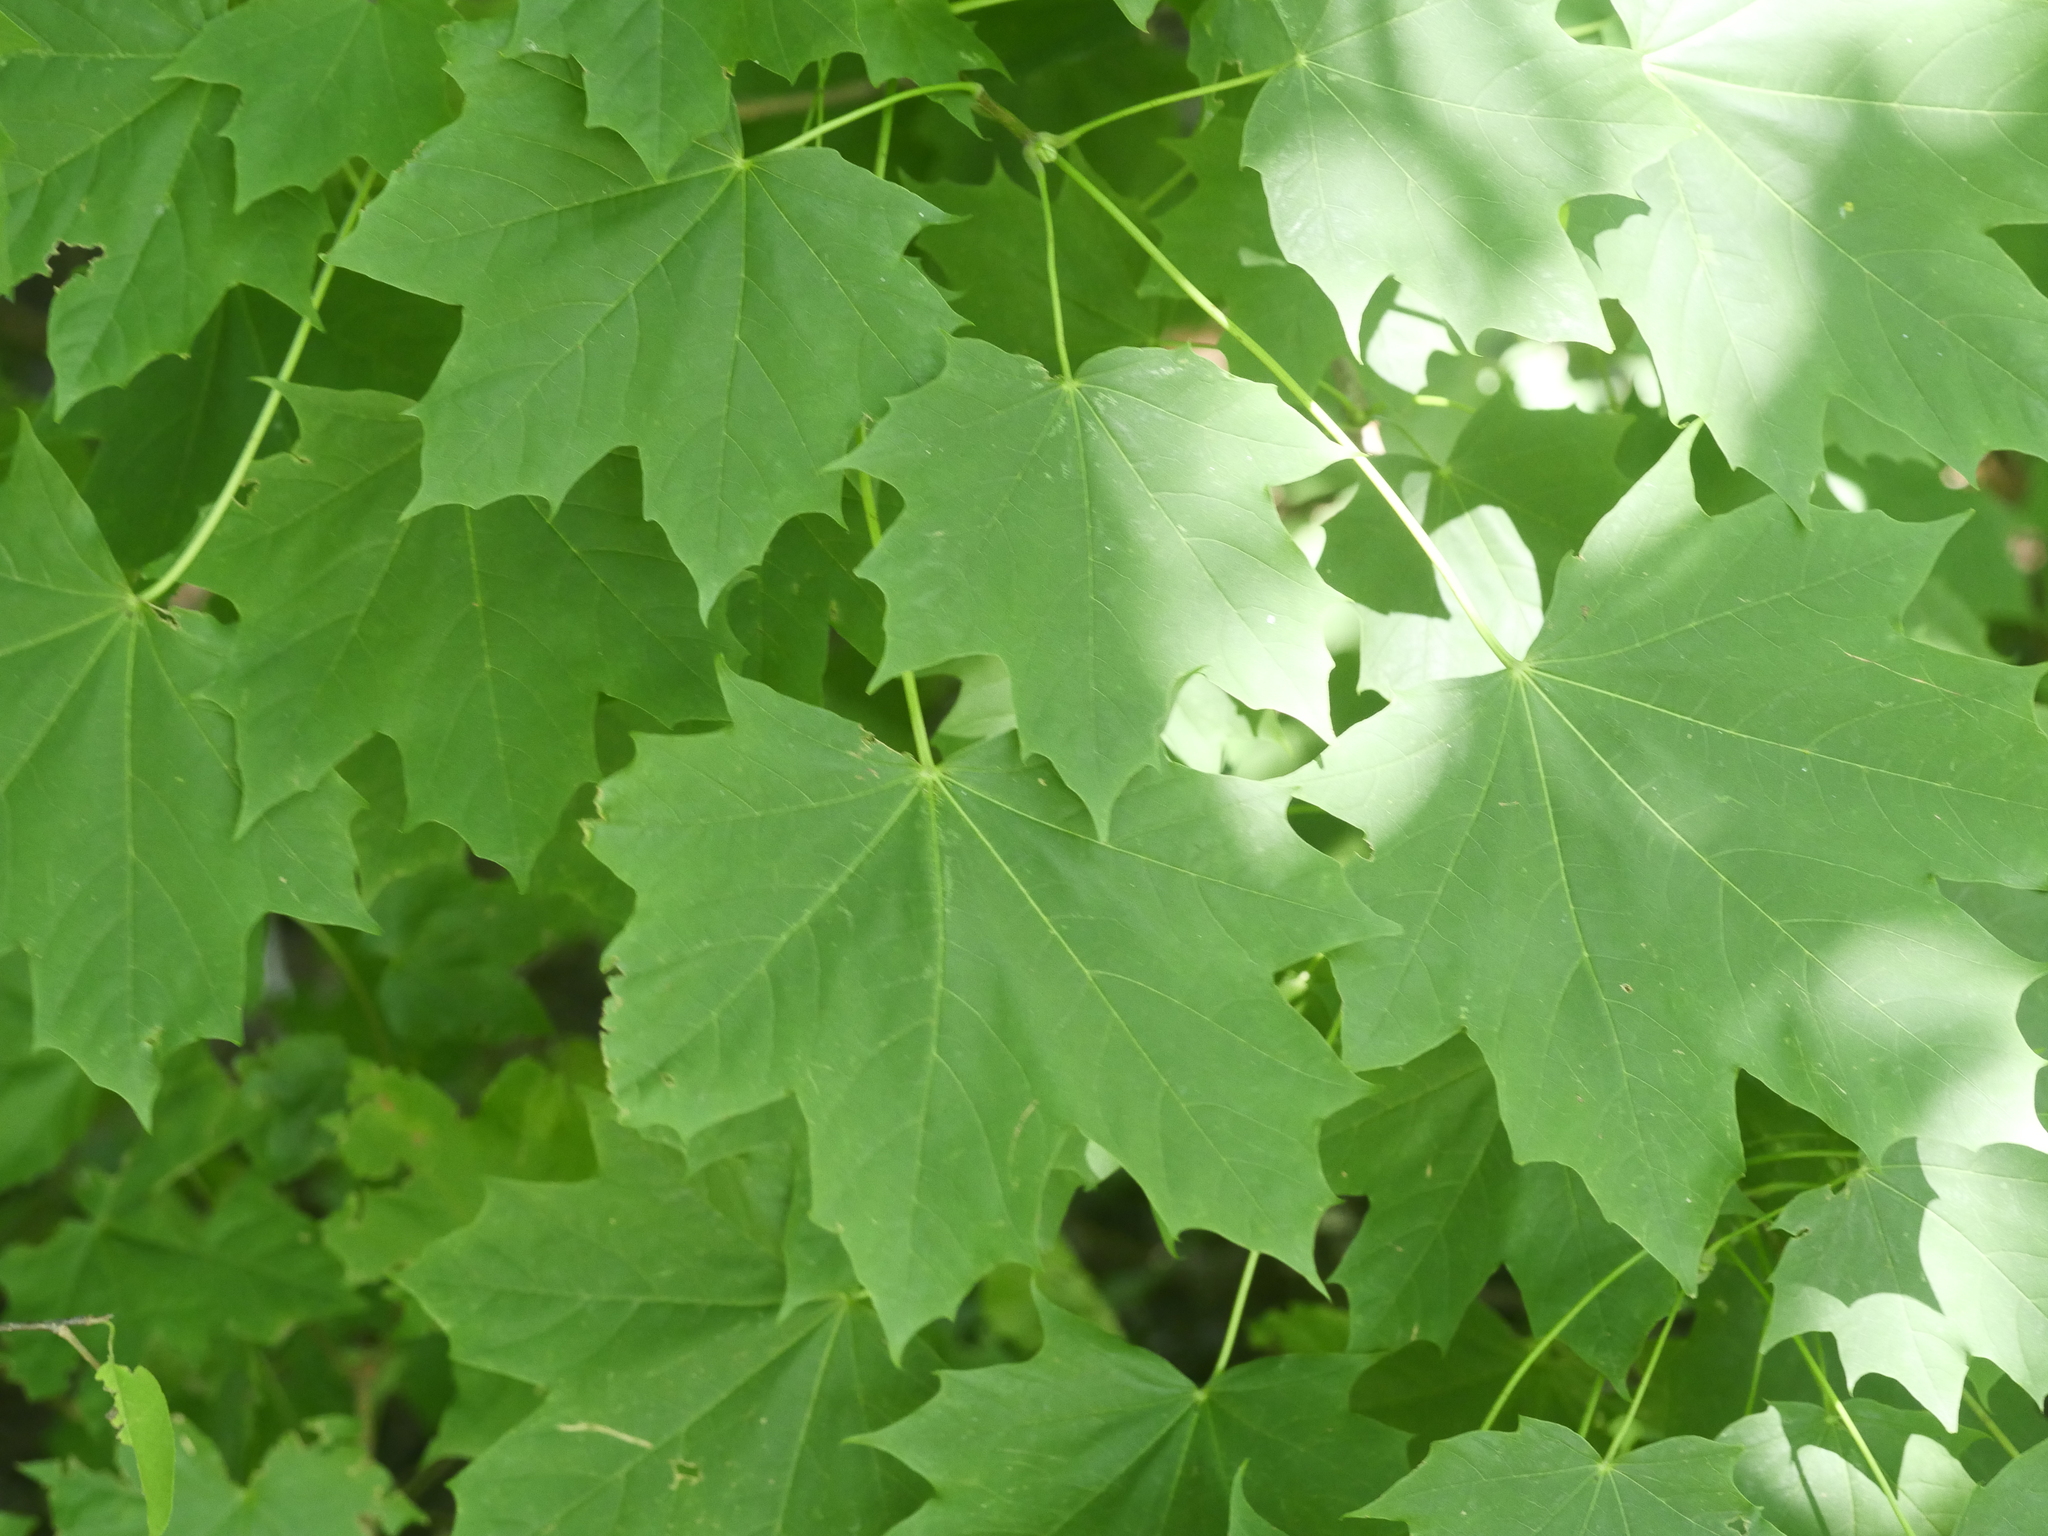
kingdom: Plantae
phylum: Tracheophyta
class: Magnoliopsida
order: Sapindales
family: Sapindaceae
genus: Acer
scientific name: Acer platanoides
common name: Norway maple
